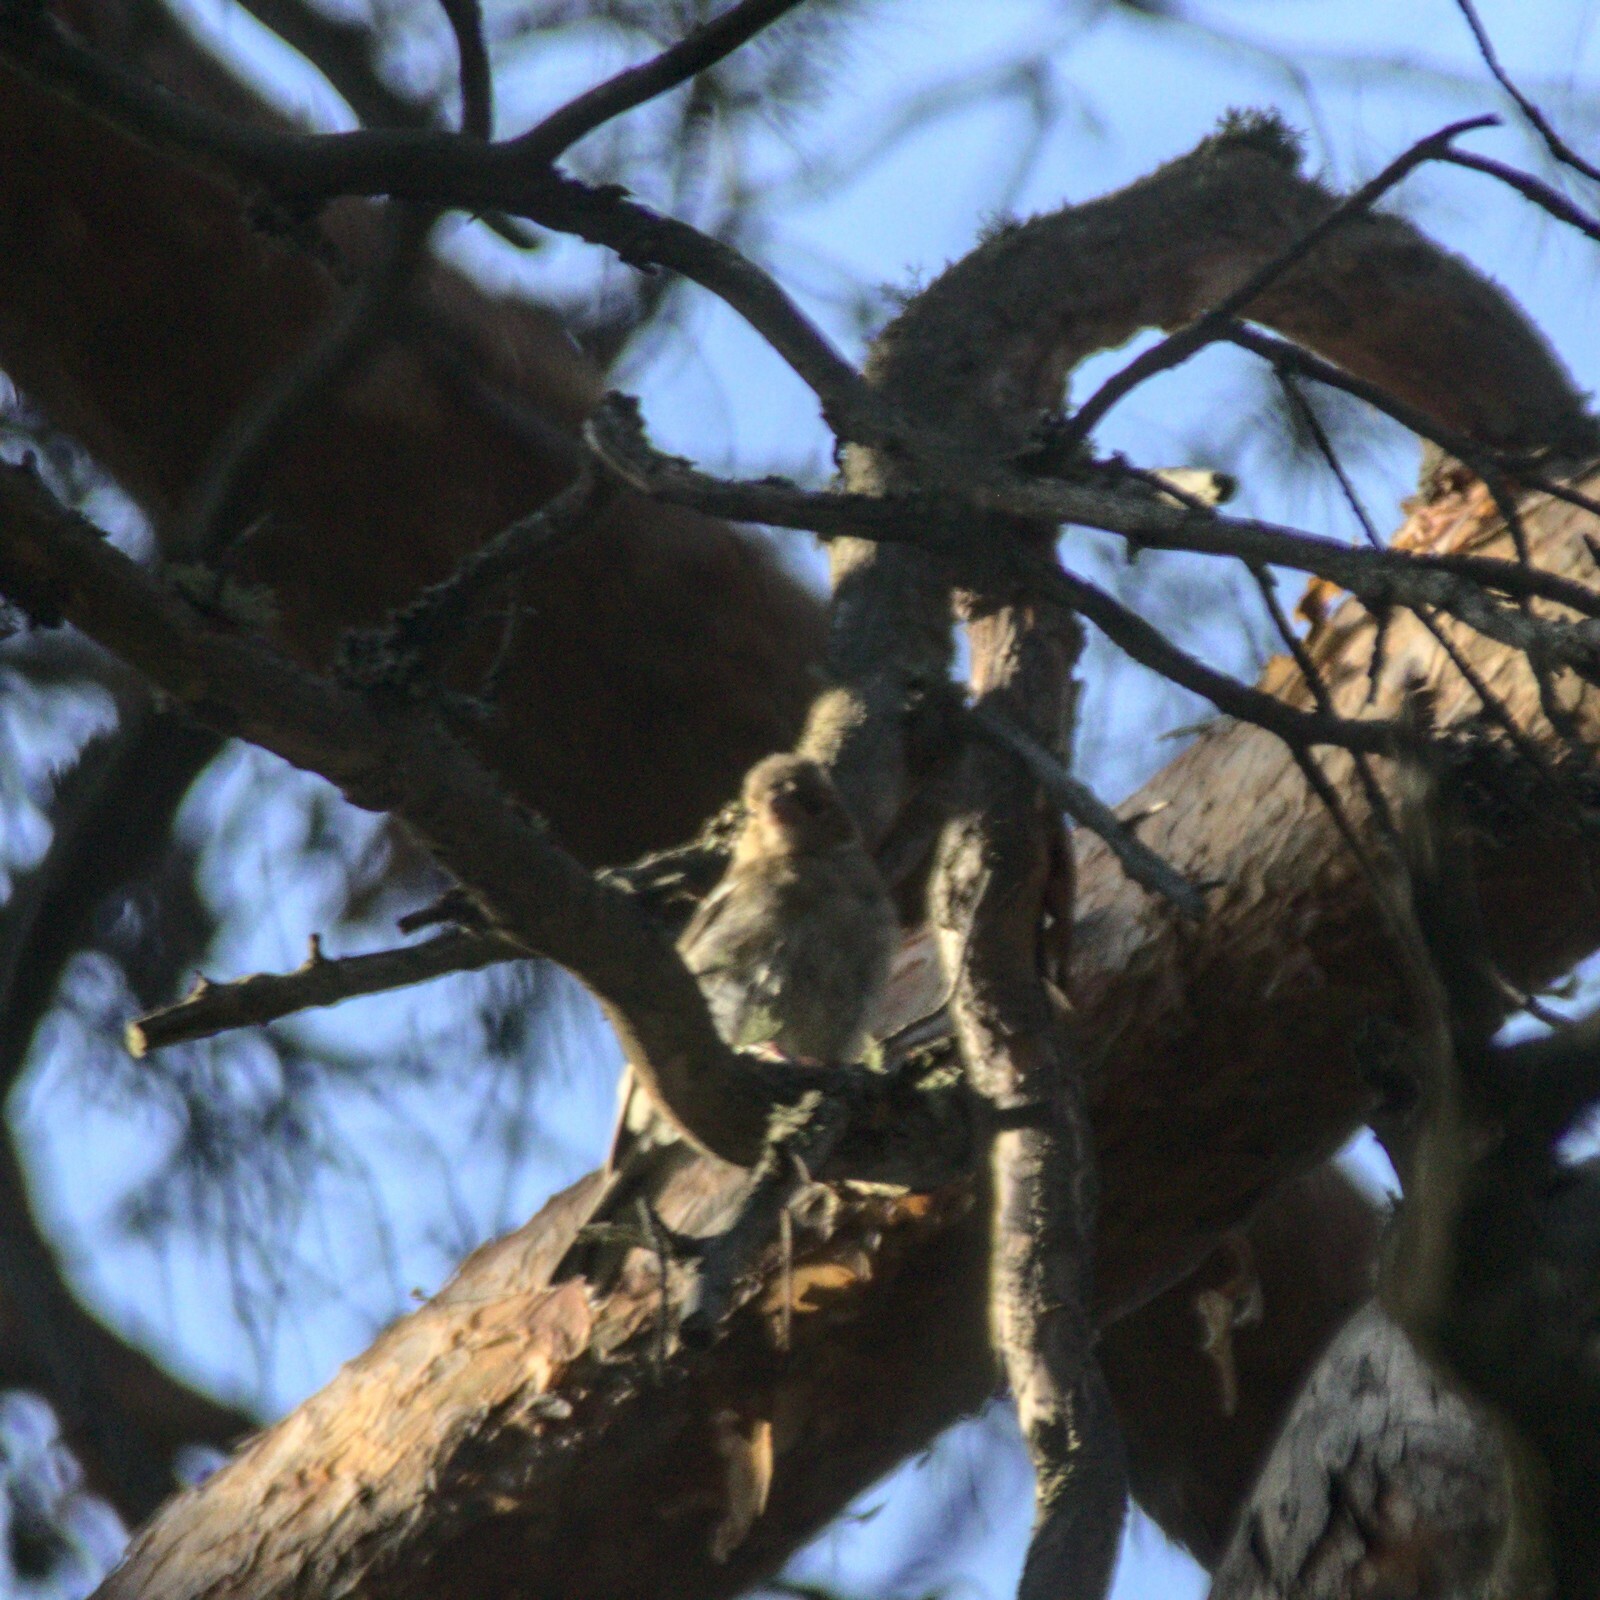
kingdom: Animalia
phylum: Chordata
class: Aves
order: Passeriformes
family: Fringillidae
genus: Fringilla
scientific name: Fringilla coelebs
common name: Common chaffinch
